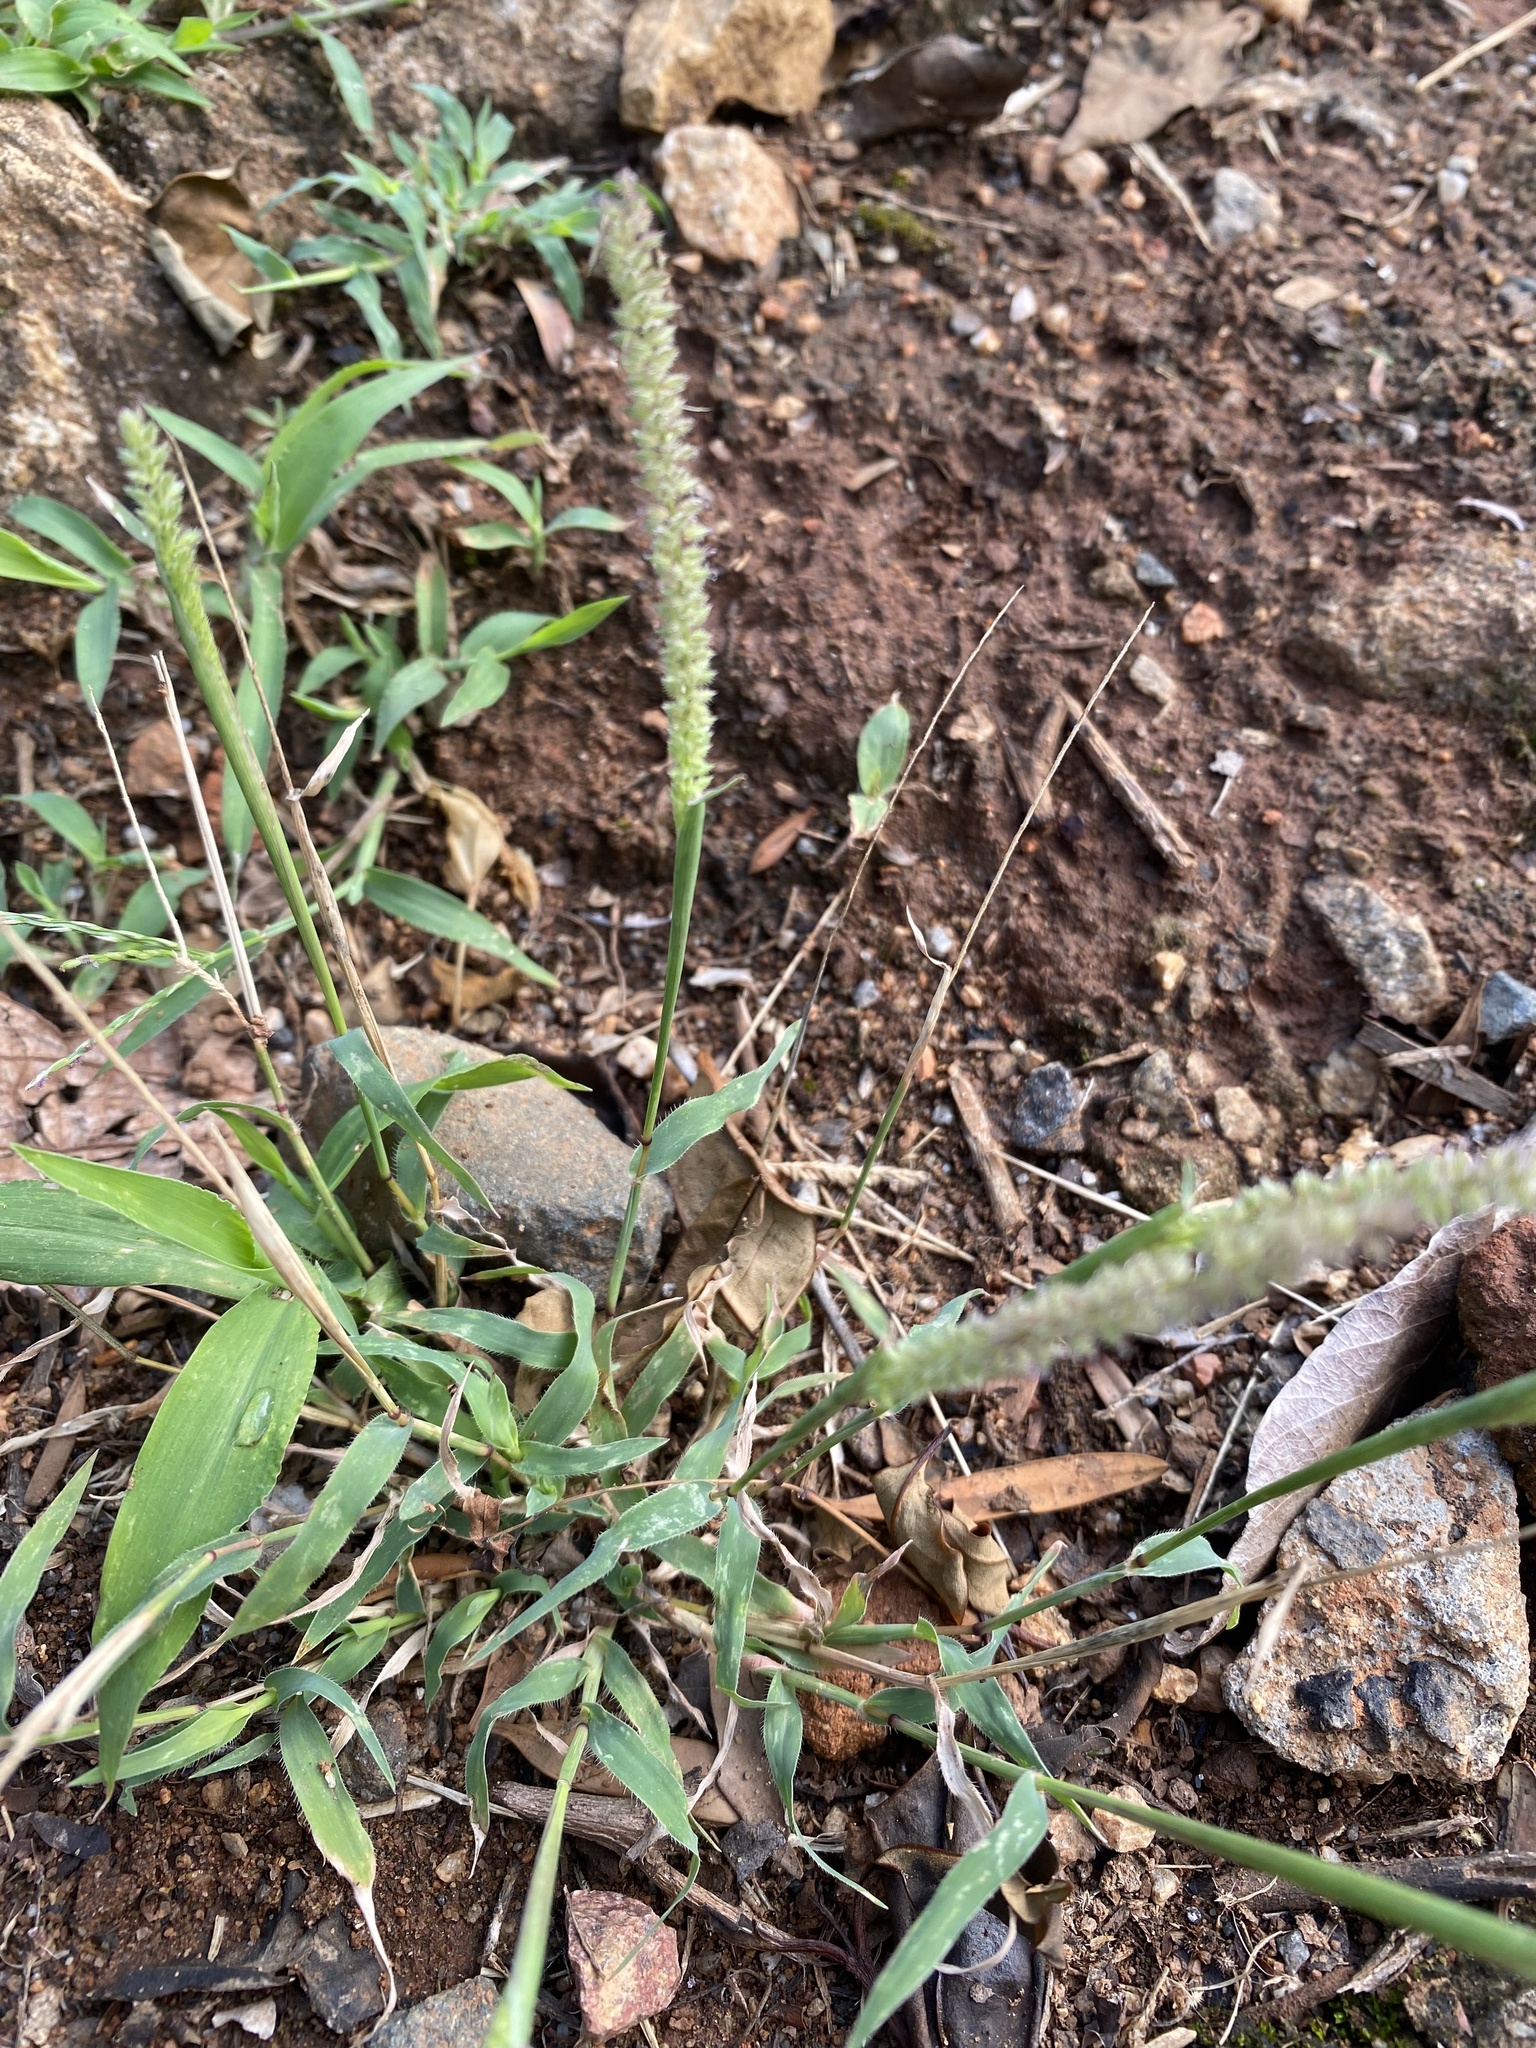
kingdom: Plantae
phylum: Tracheophyta
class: Liliopsida
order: Poales
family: Poaceae
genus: Tragus
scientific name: Tragus berteronianus
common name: African bur-grass
